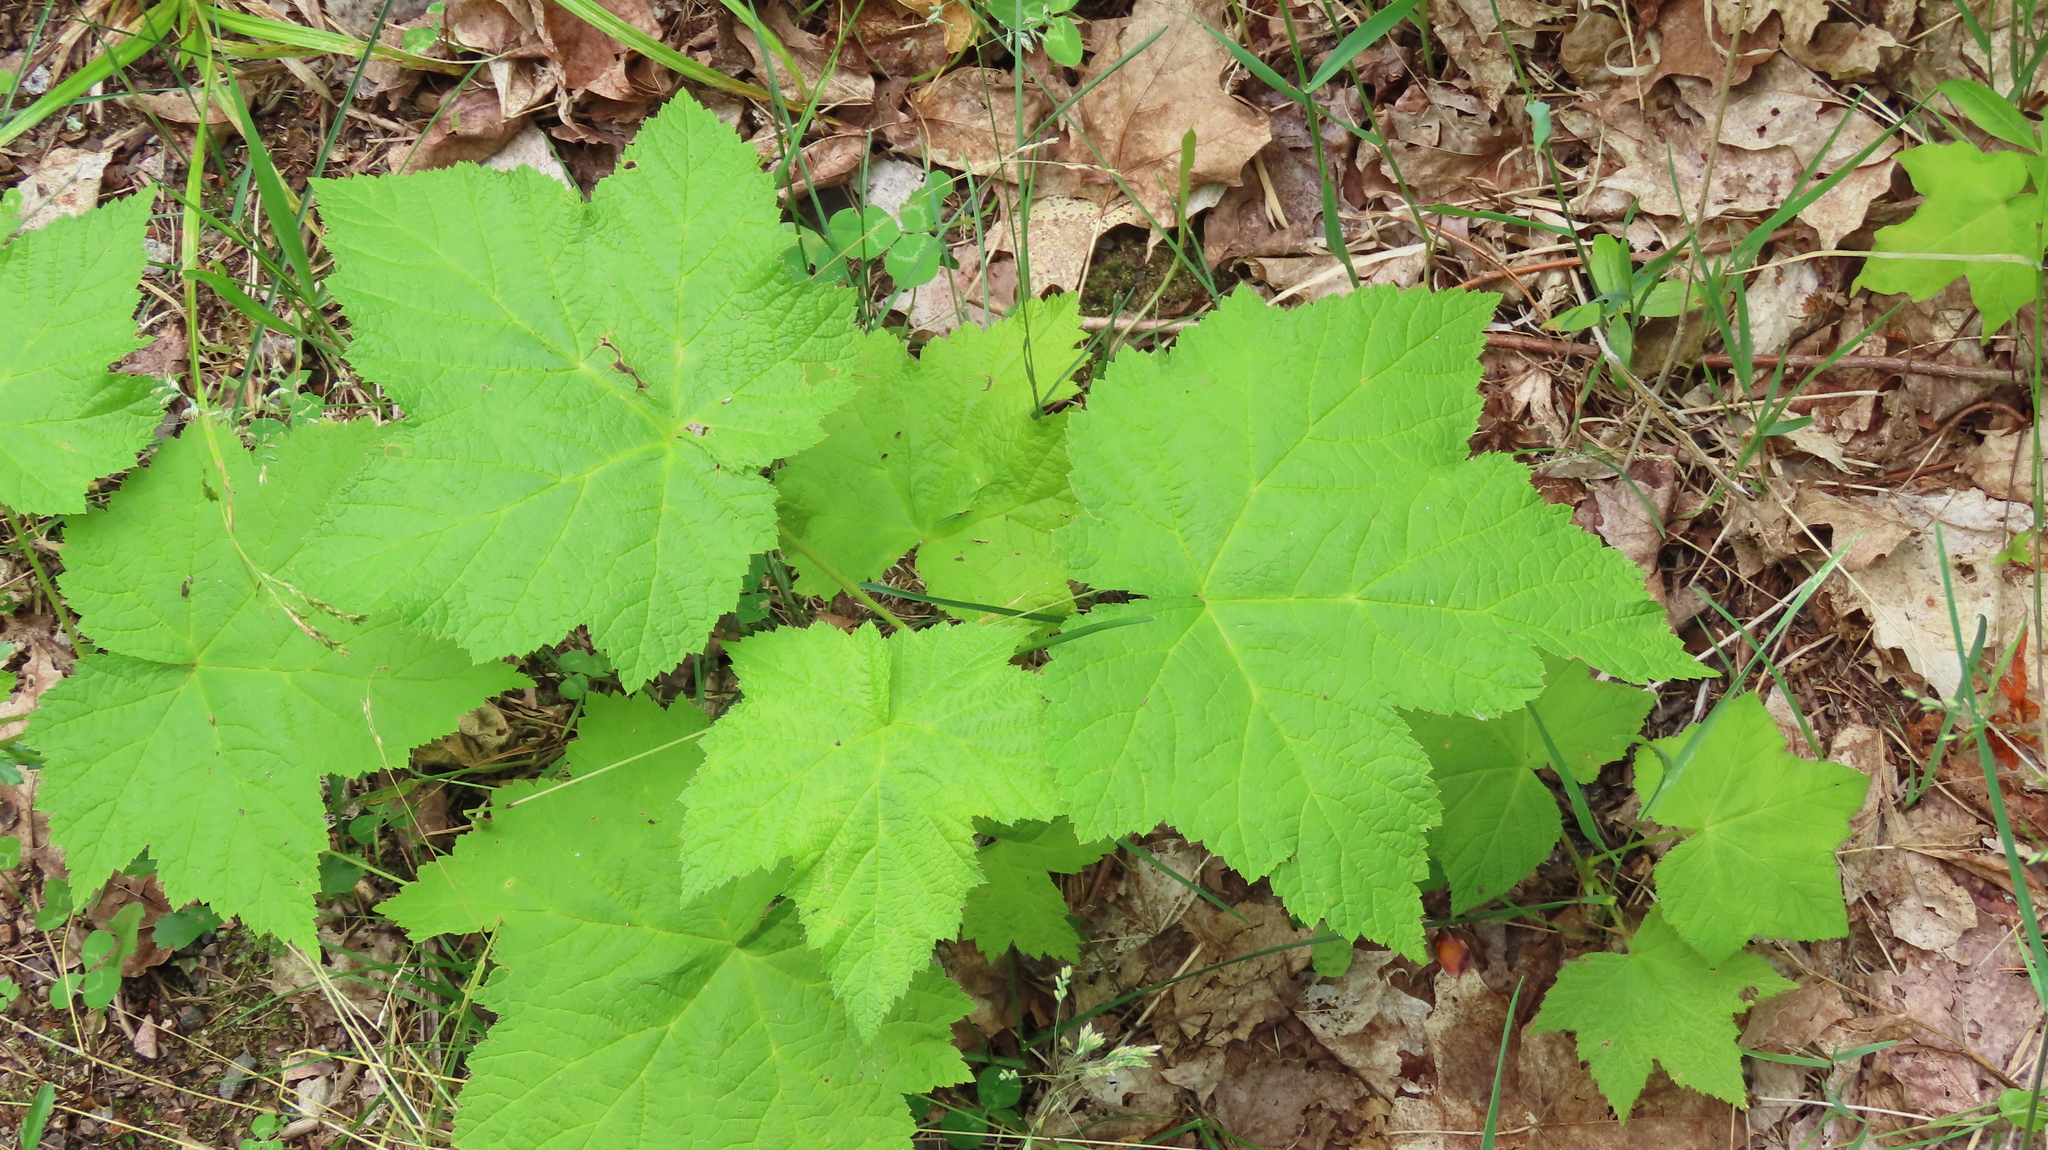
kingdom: Plantae
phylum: Tracheophyta
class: Magnoliopsida
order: Rosales
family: Rosaceae
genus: Rubus
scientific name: Rubus parviflorus
